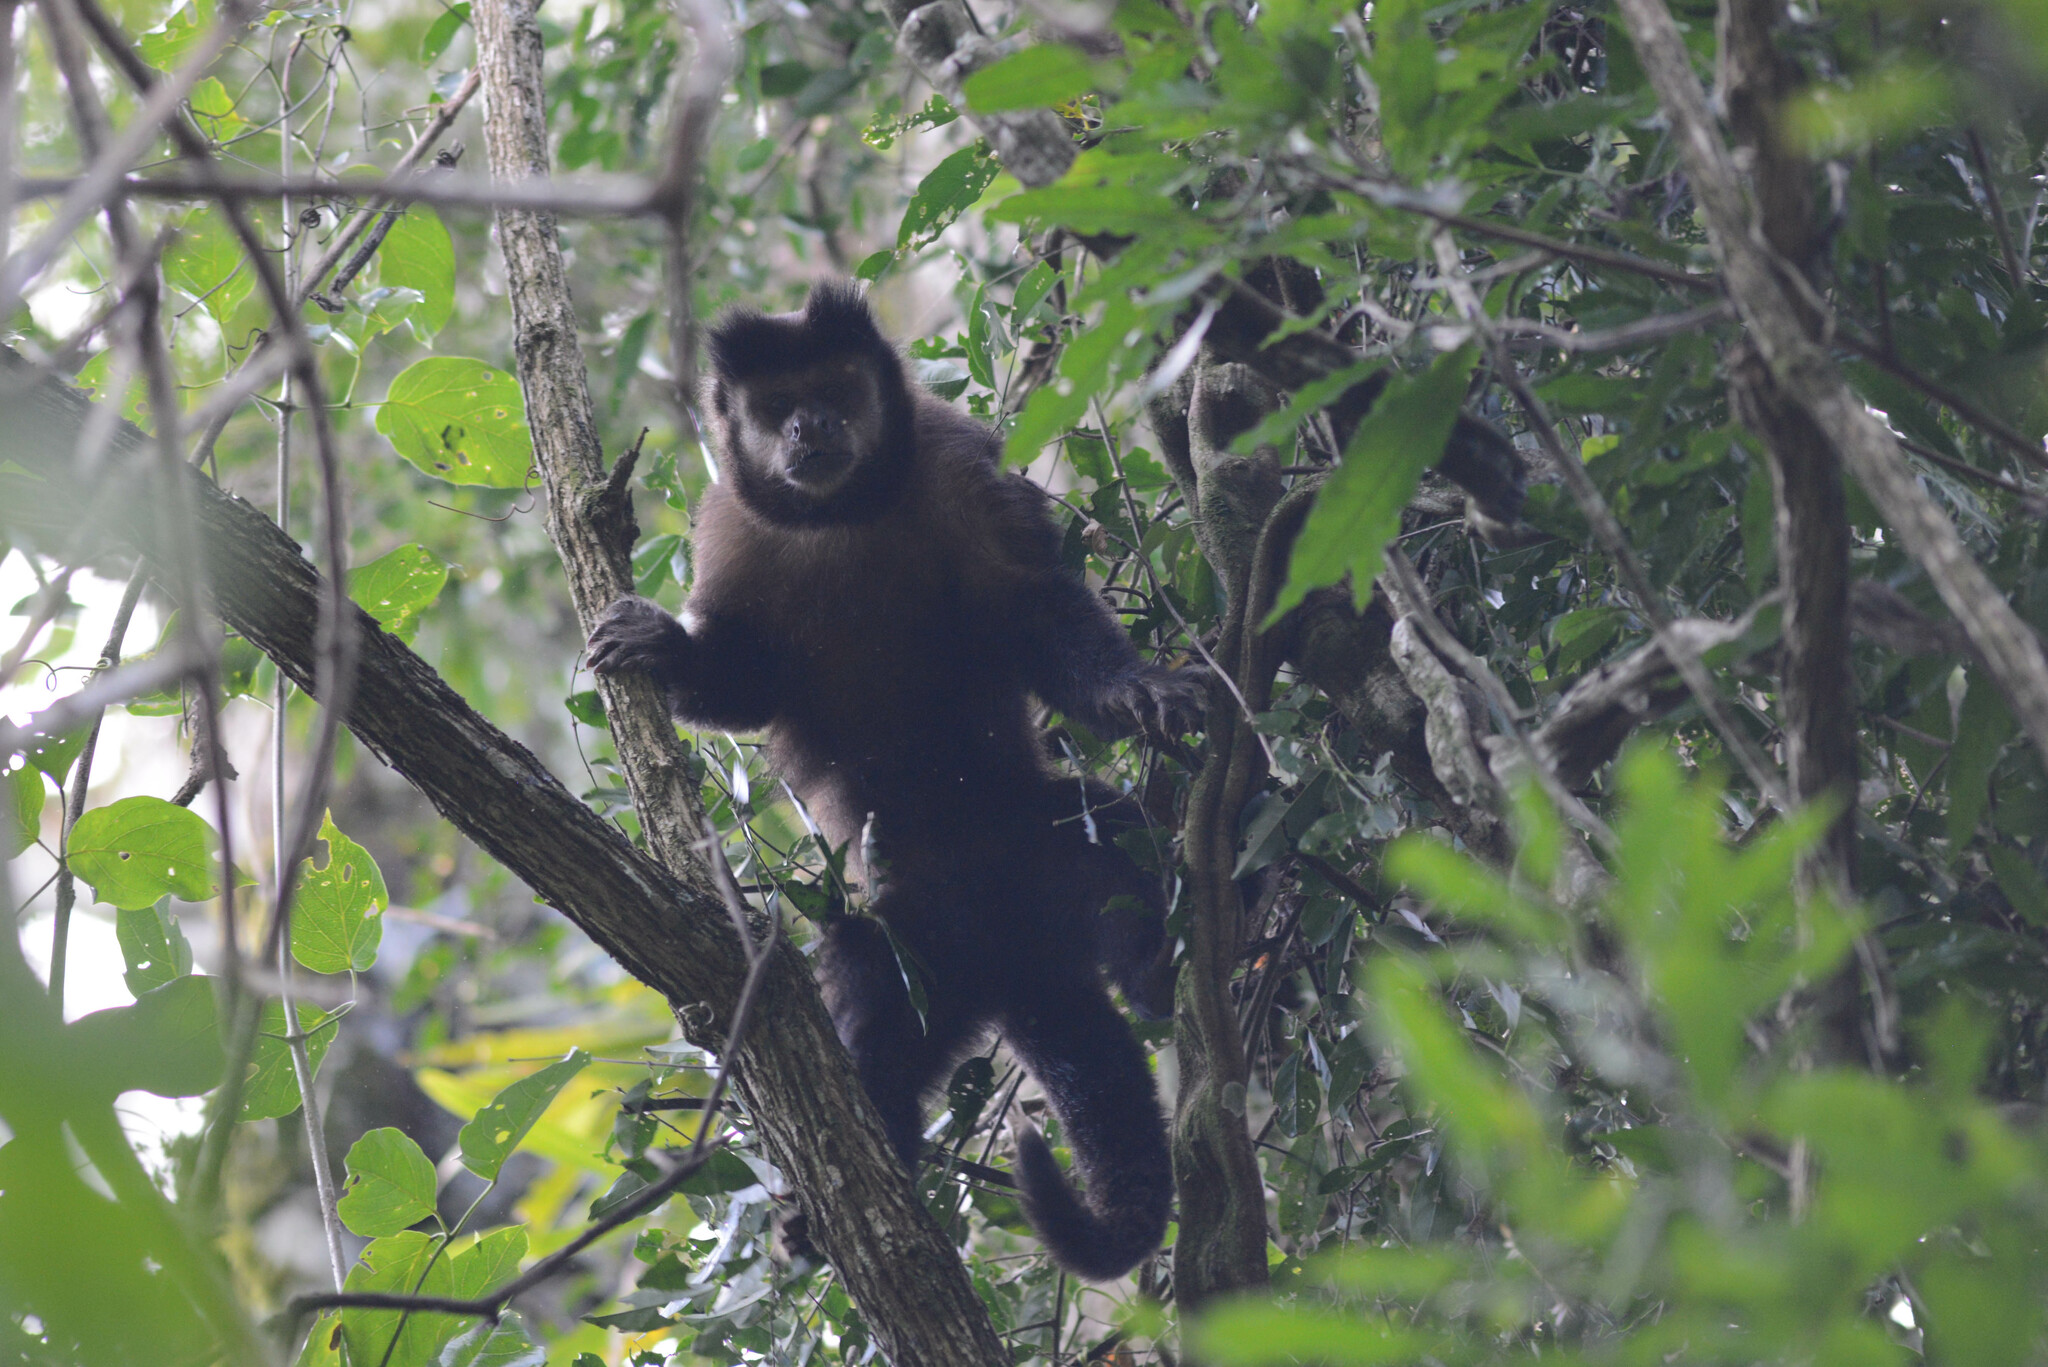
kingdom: Animalia
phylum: Chordata
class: Mammalia
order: Primates
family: Cebidae
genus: Sapajus
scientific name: Sapajus nigritus
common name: Black capuchin
